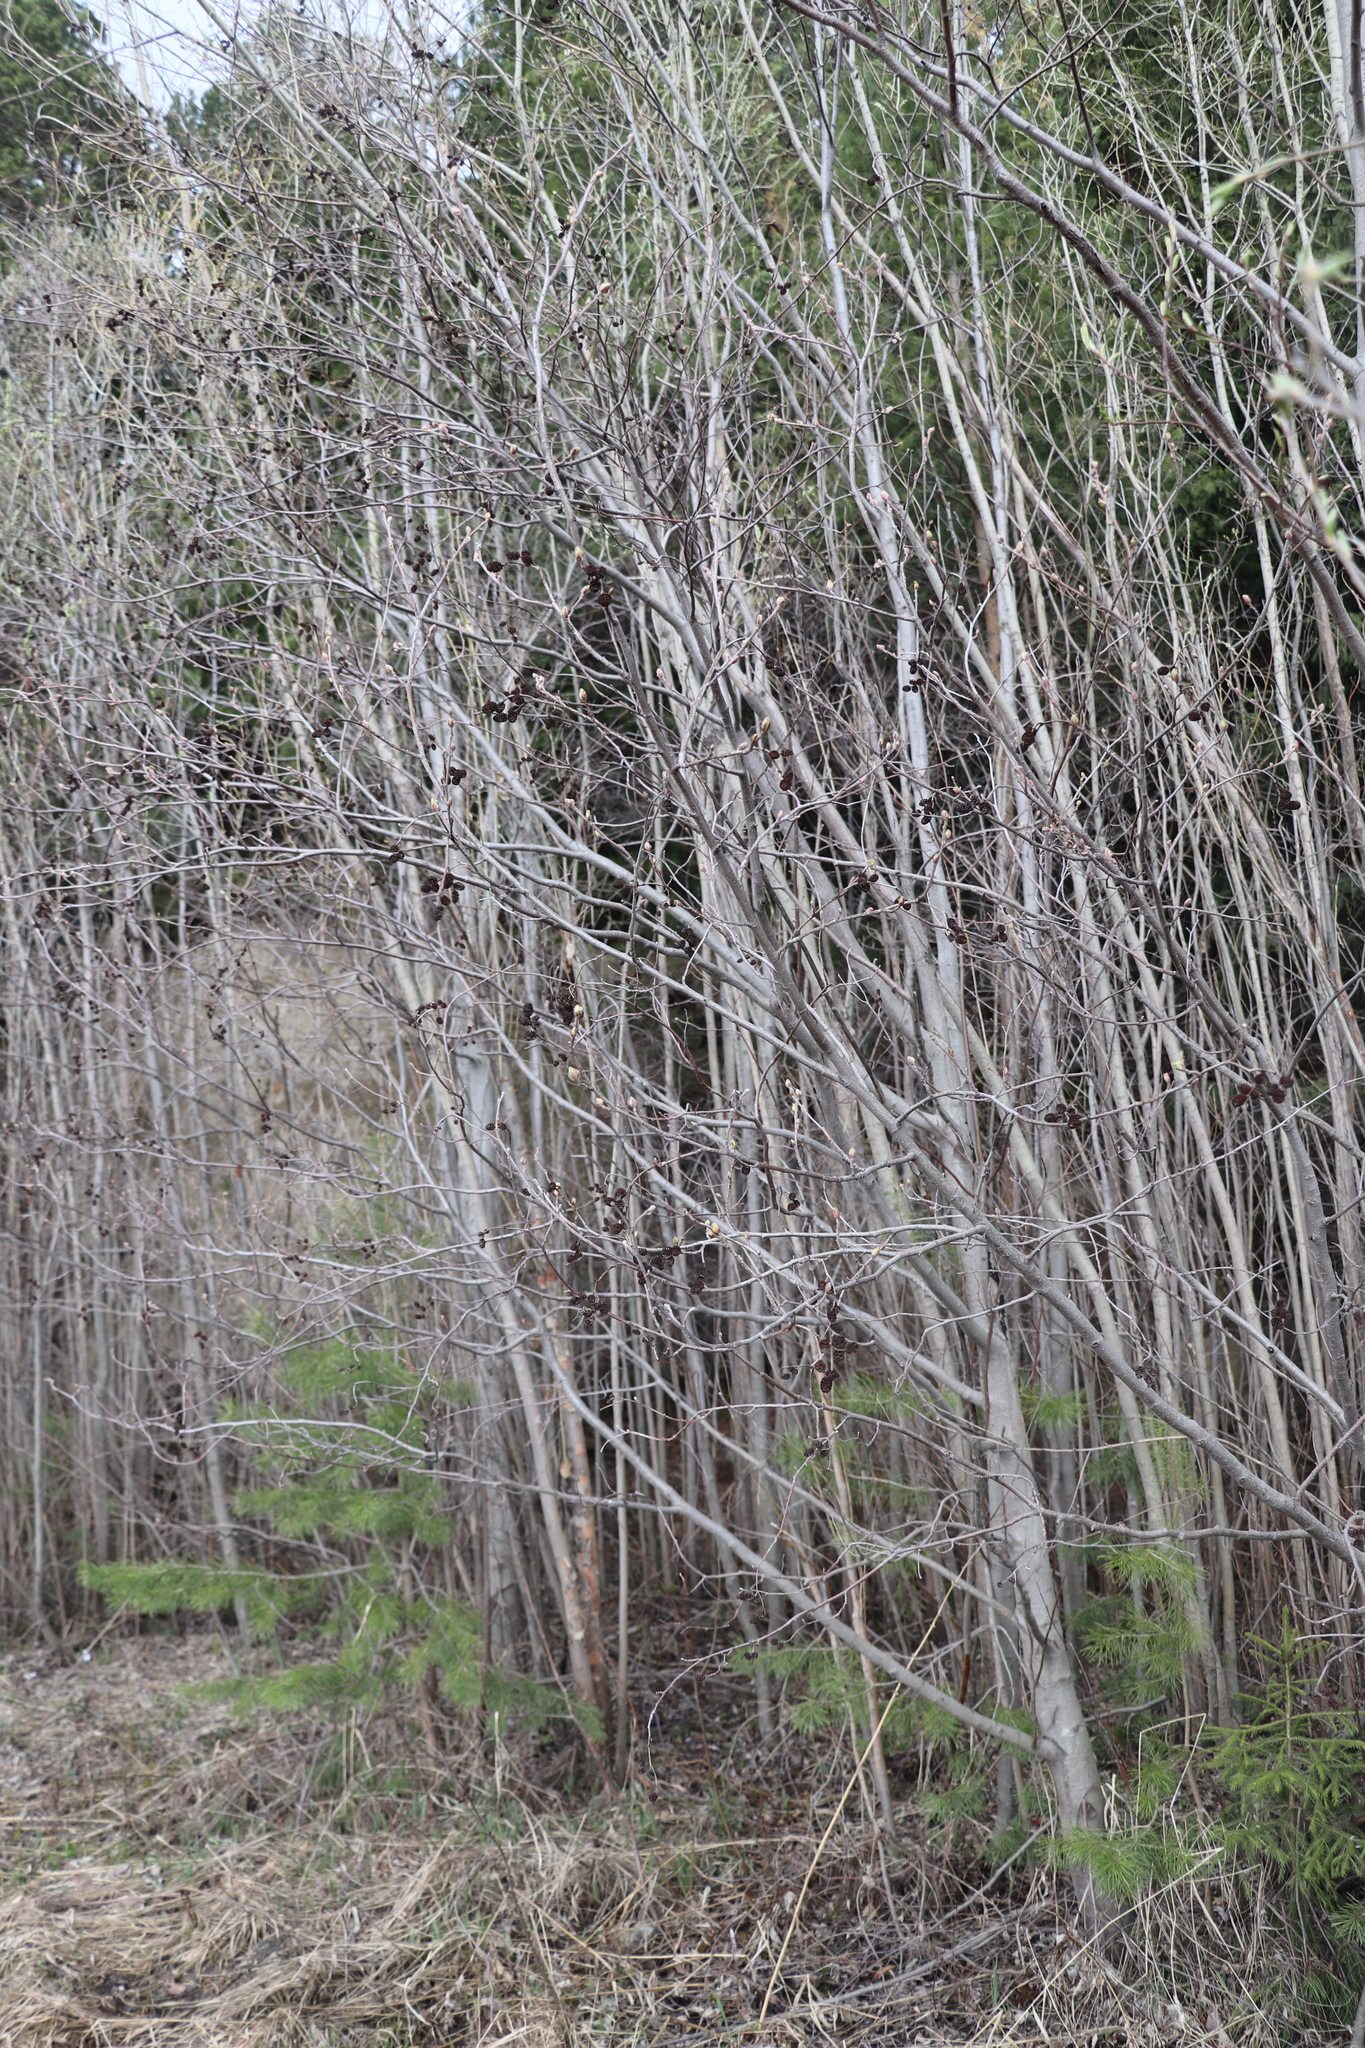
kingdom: Plantae
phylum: Tracheophyta
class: Magnoliopsida
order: Fagales
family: Betulaceae
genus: Alnus
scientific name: Alnus incana
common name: Grey alder
